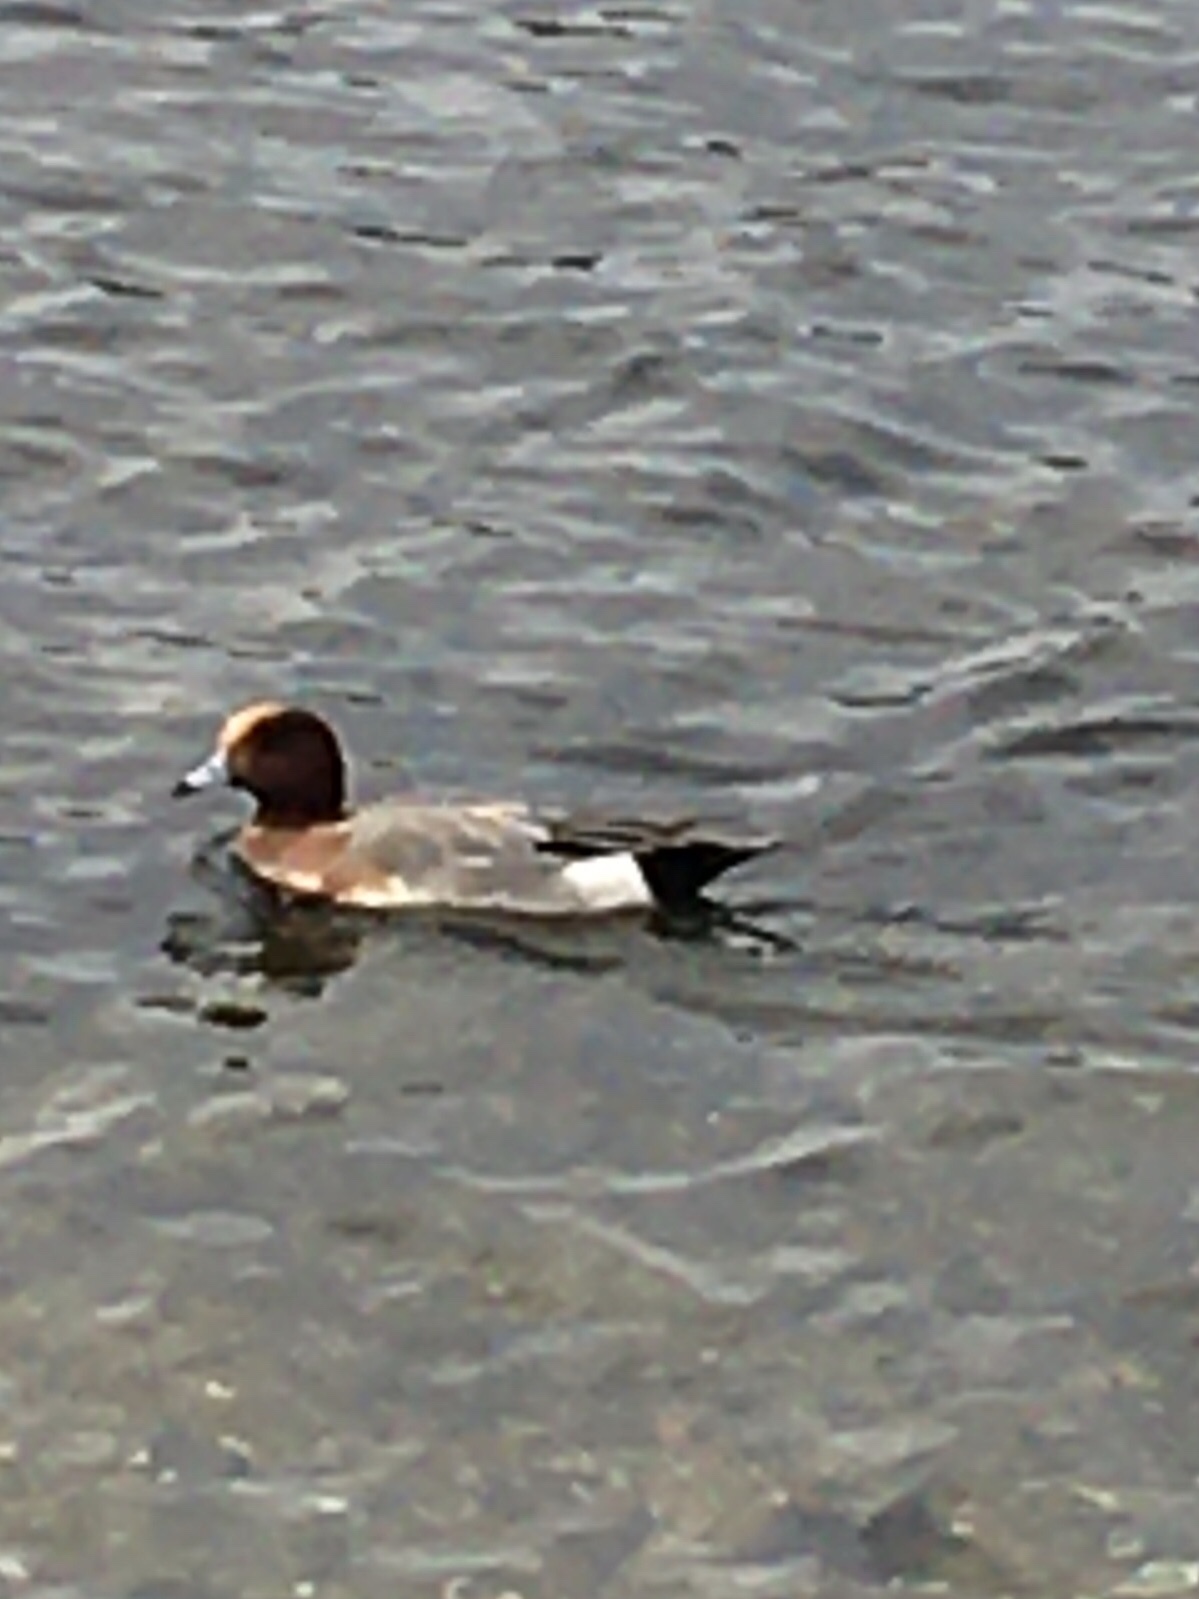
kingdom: Animalia
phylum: Chordata
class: Aves
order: Anseriformes
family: Anatidae
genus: Mareca
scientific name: Mareca penelope
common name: Eurasian wigeon
